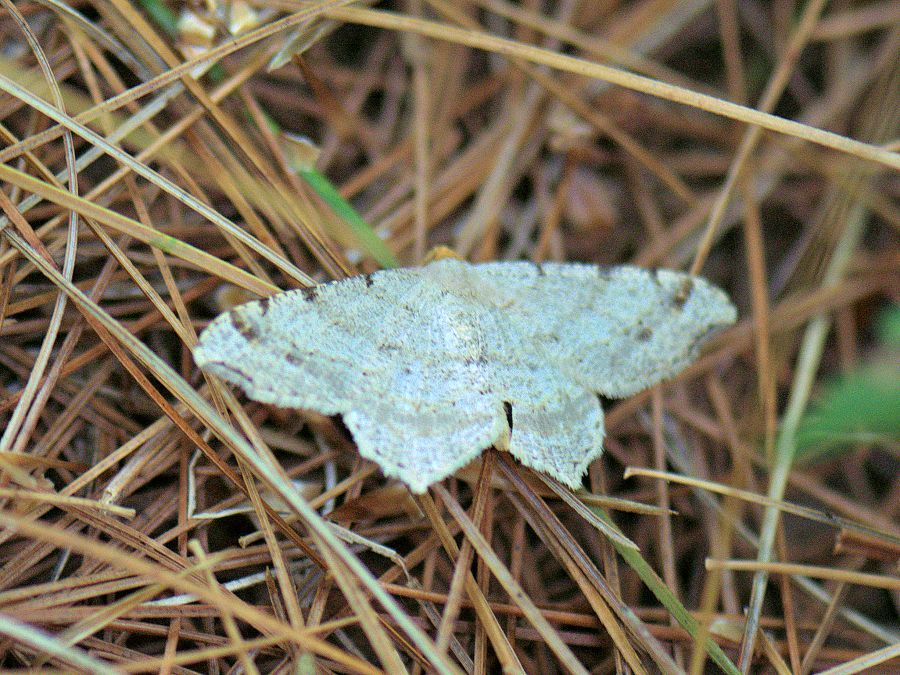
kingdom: Animalia
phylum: Arthropoda
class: Insecta
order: Lepidoptera
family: Geometridae
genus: Macaria
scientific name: Macaria bisignata
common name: Red-headed inchworm
